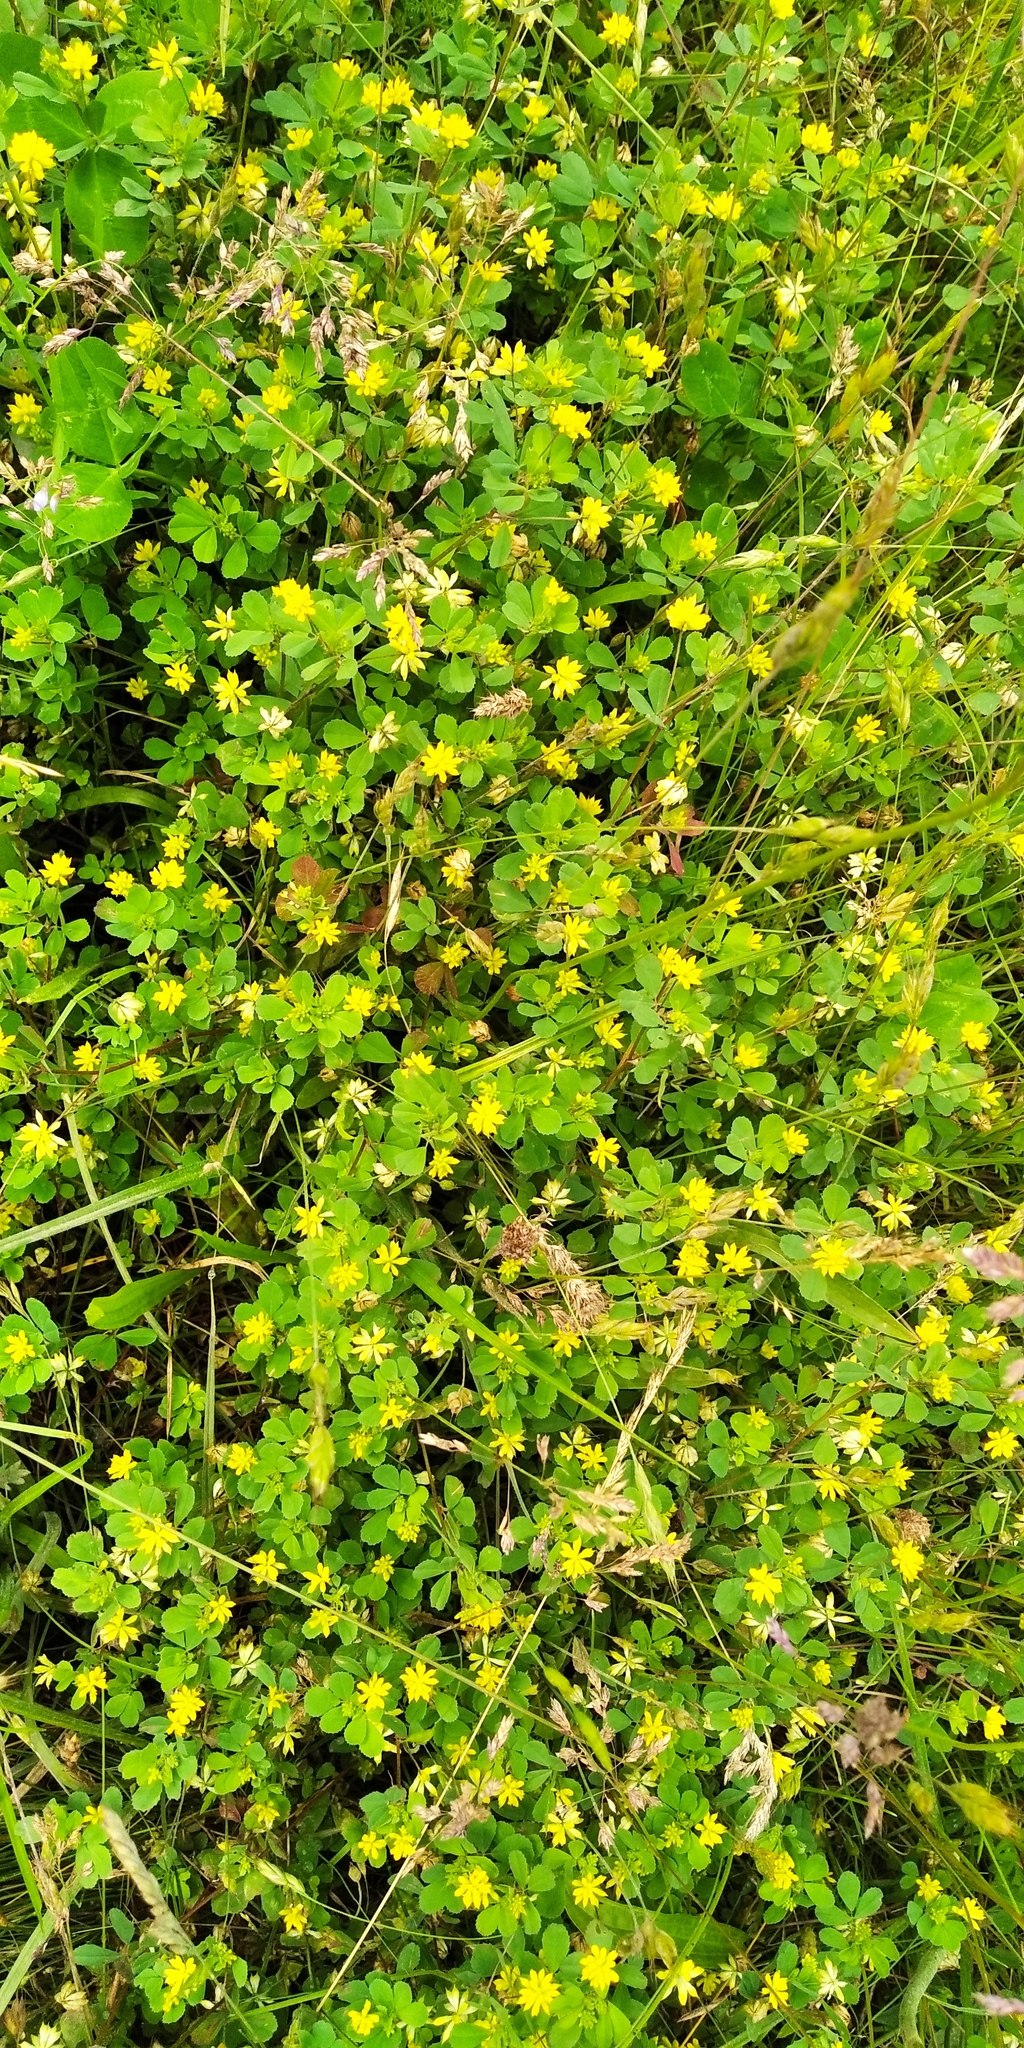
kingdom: Plantae
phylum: Tracheophyta
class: Magnoliopsida
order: Fabales
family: Fabaceae
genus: Trifolium
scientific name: Trifolium dubium
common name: Suckling clover
